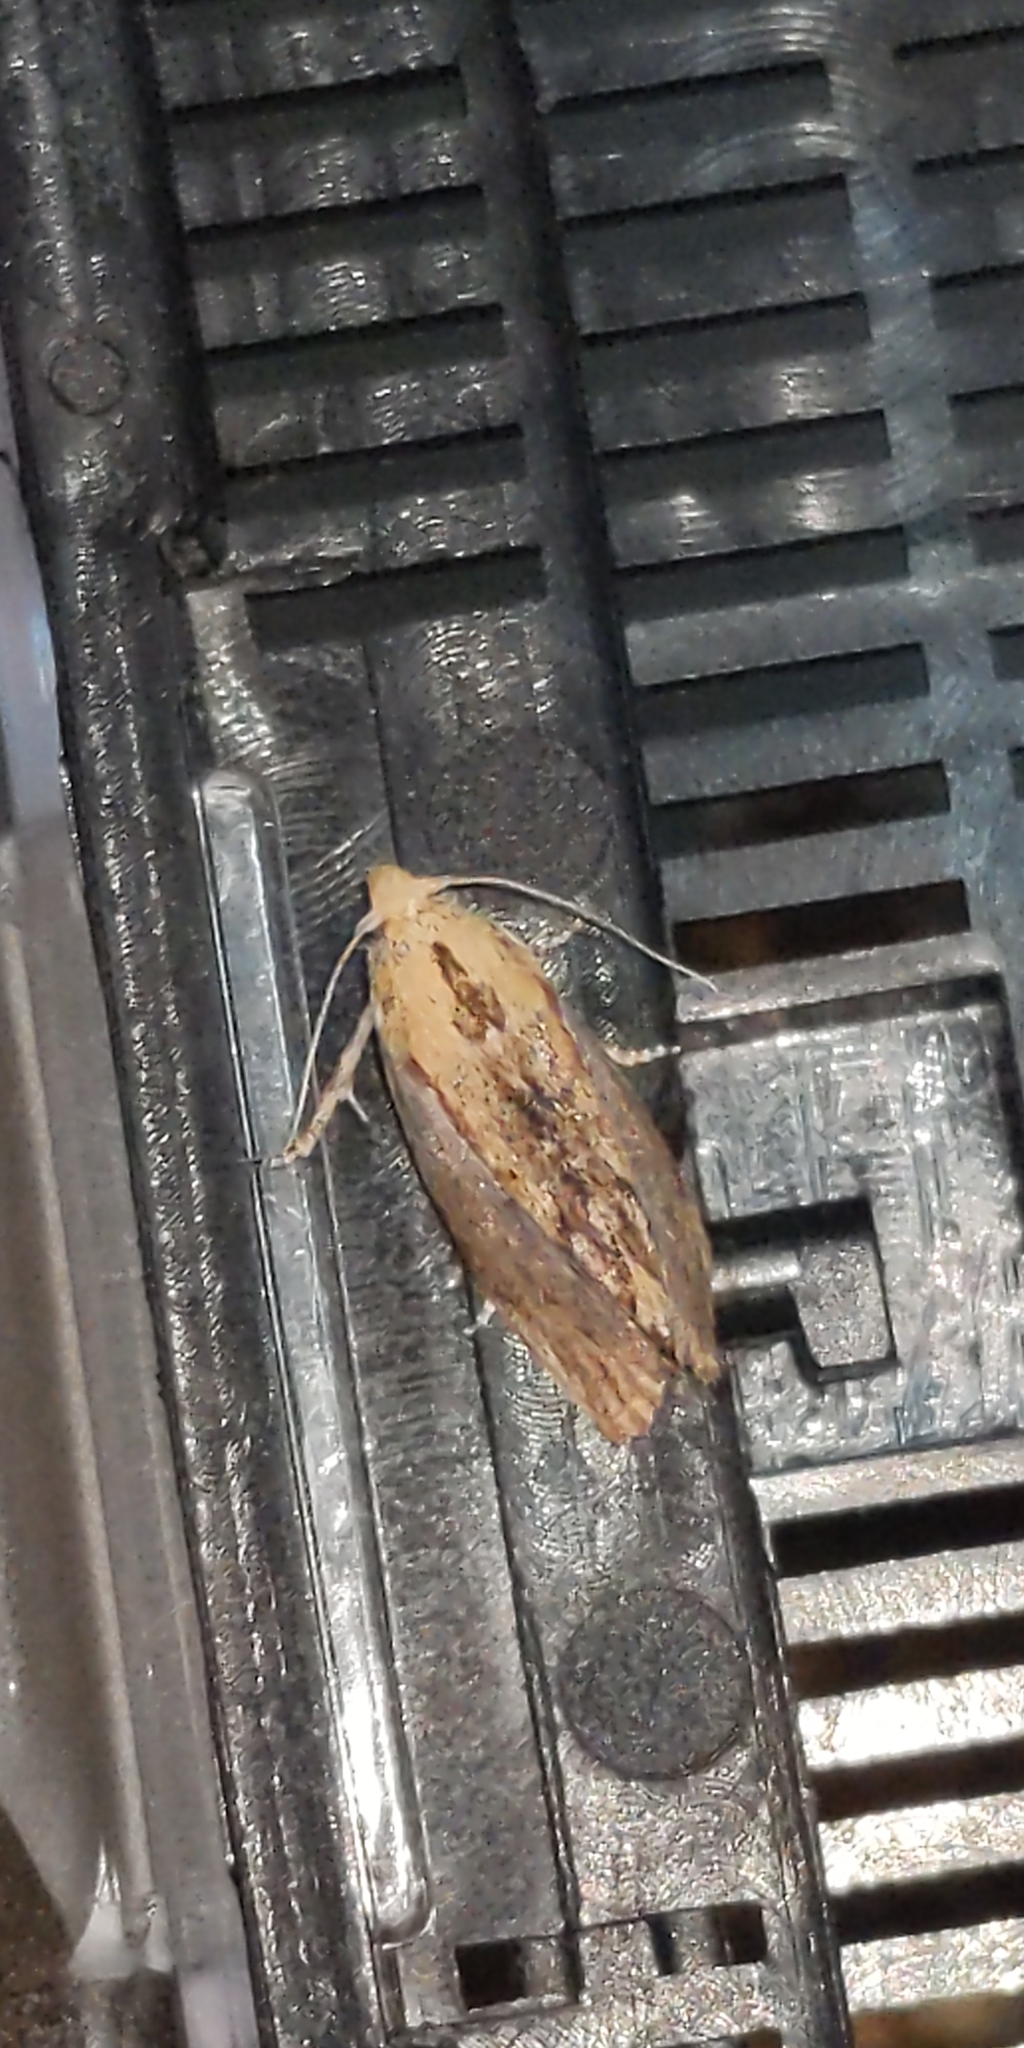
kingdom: Animalia
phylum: Arthropoda
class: Insecta
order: Lepidoptera
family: Pyralidae
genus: Galleria
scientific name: Galleria mellonella
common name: Greater wax moth
